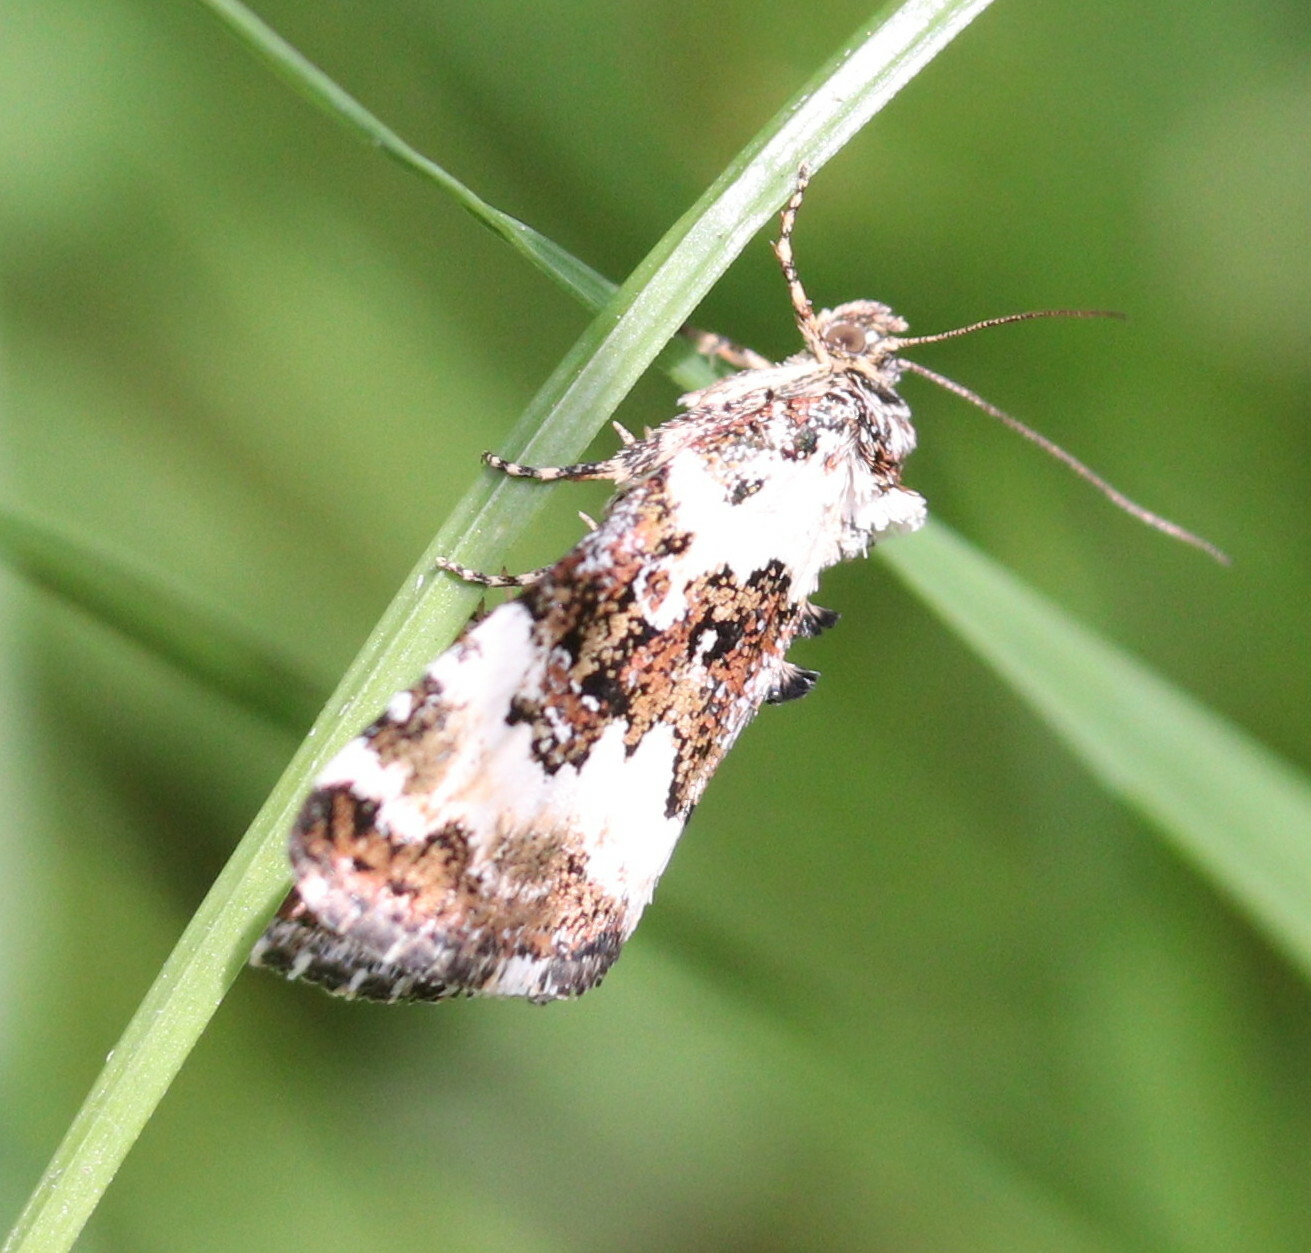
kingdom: Animalia
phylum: Arthropoda
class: Insecta
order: Lepidoptera
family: Noctuidae
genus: Deltote
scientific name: Deltote deceptoria
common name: Pretty marbled
